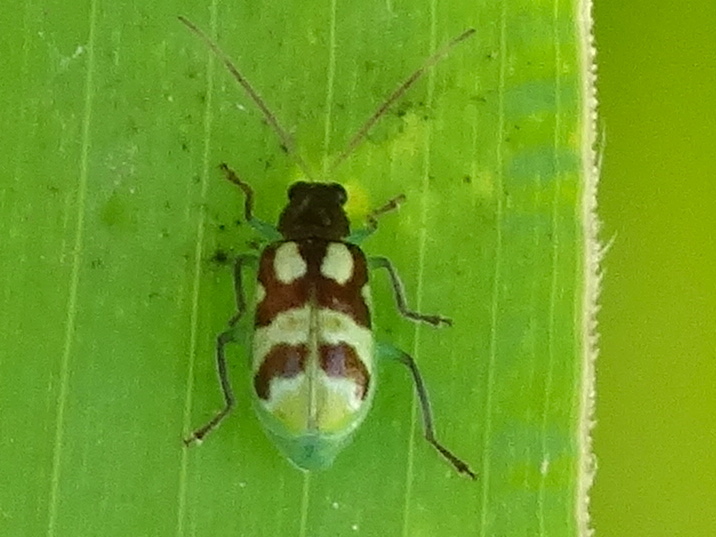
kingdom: Animalia
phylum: Arthropoda
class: Insecta
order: Coleoptera
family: Chrysomelidae
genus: Diabrotica
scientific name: Diabrotica
